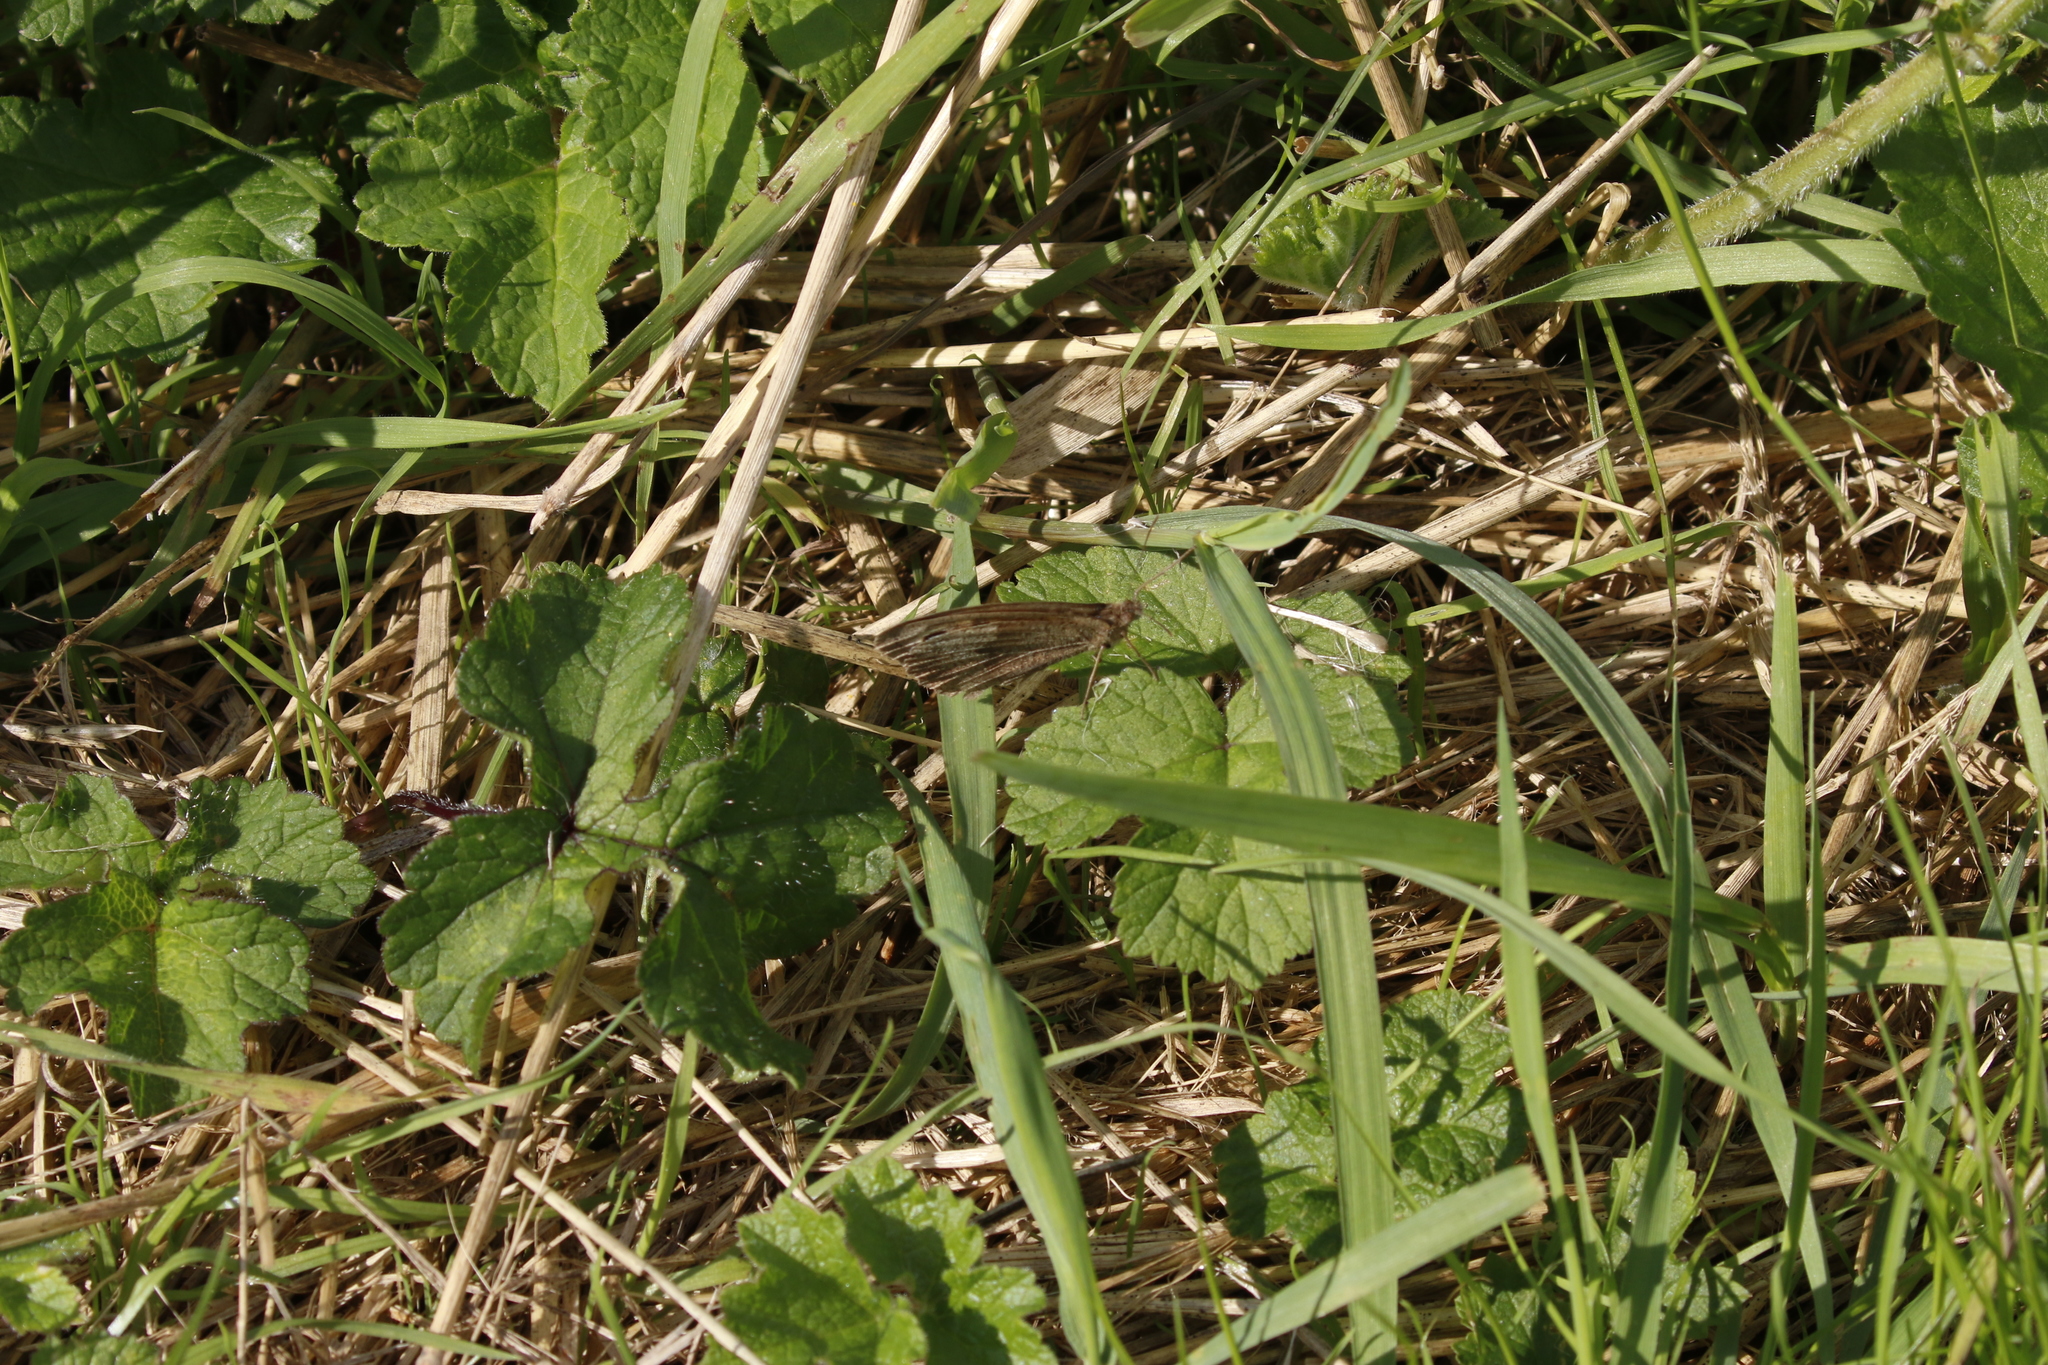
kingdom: Animalia
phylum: Arthropoda
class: Insecta
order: Lepidoptera
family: Nymphalidae
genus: Maniola
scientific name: Maniola jurtina
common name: Meadow brown
